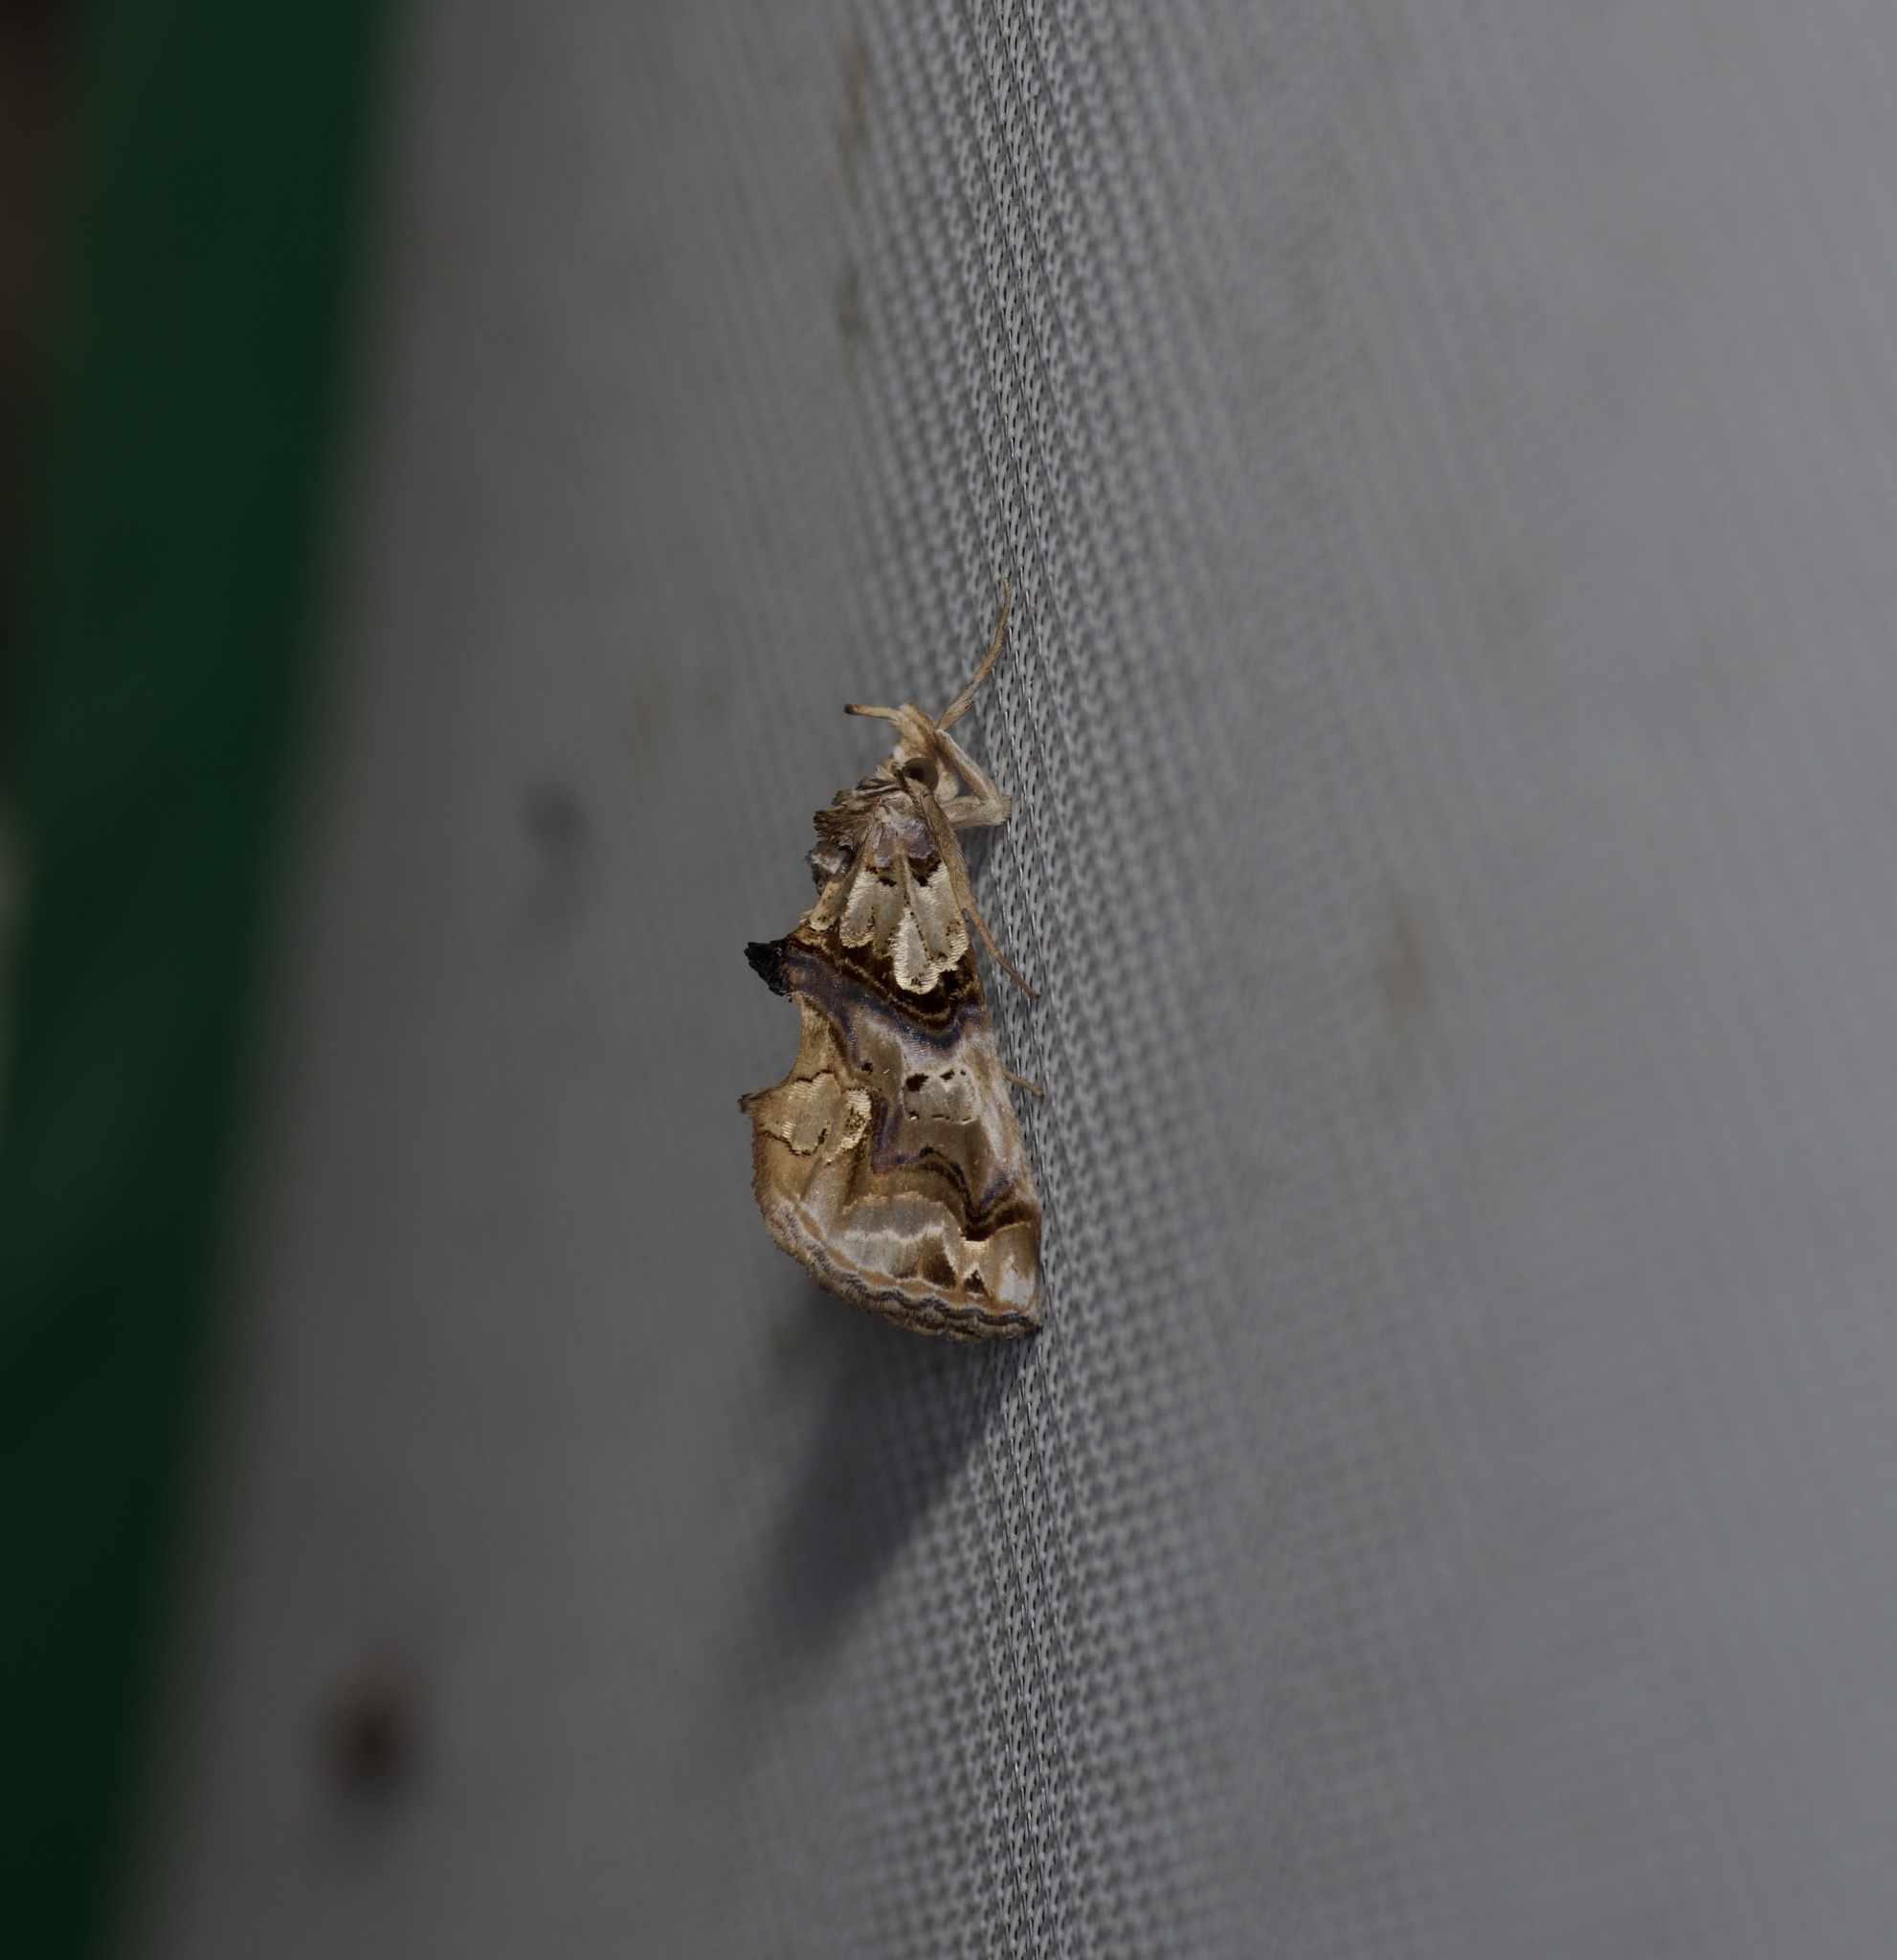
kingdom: Animalia
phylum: Arthropoda
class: Insecta
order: Lepidoptera
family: Erebidae
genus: Plusiodonta
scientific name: Plusiodonta compressipalpis
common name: Moonseed moth
